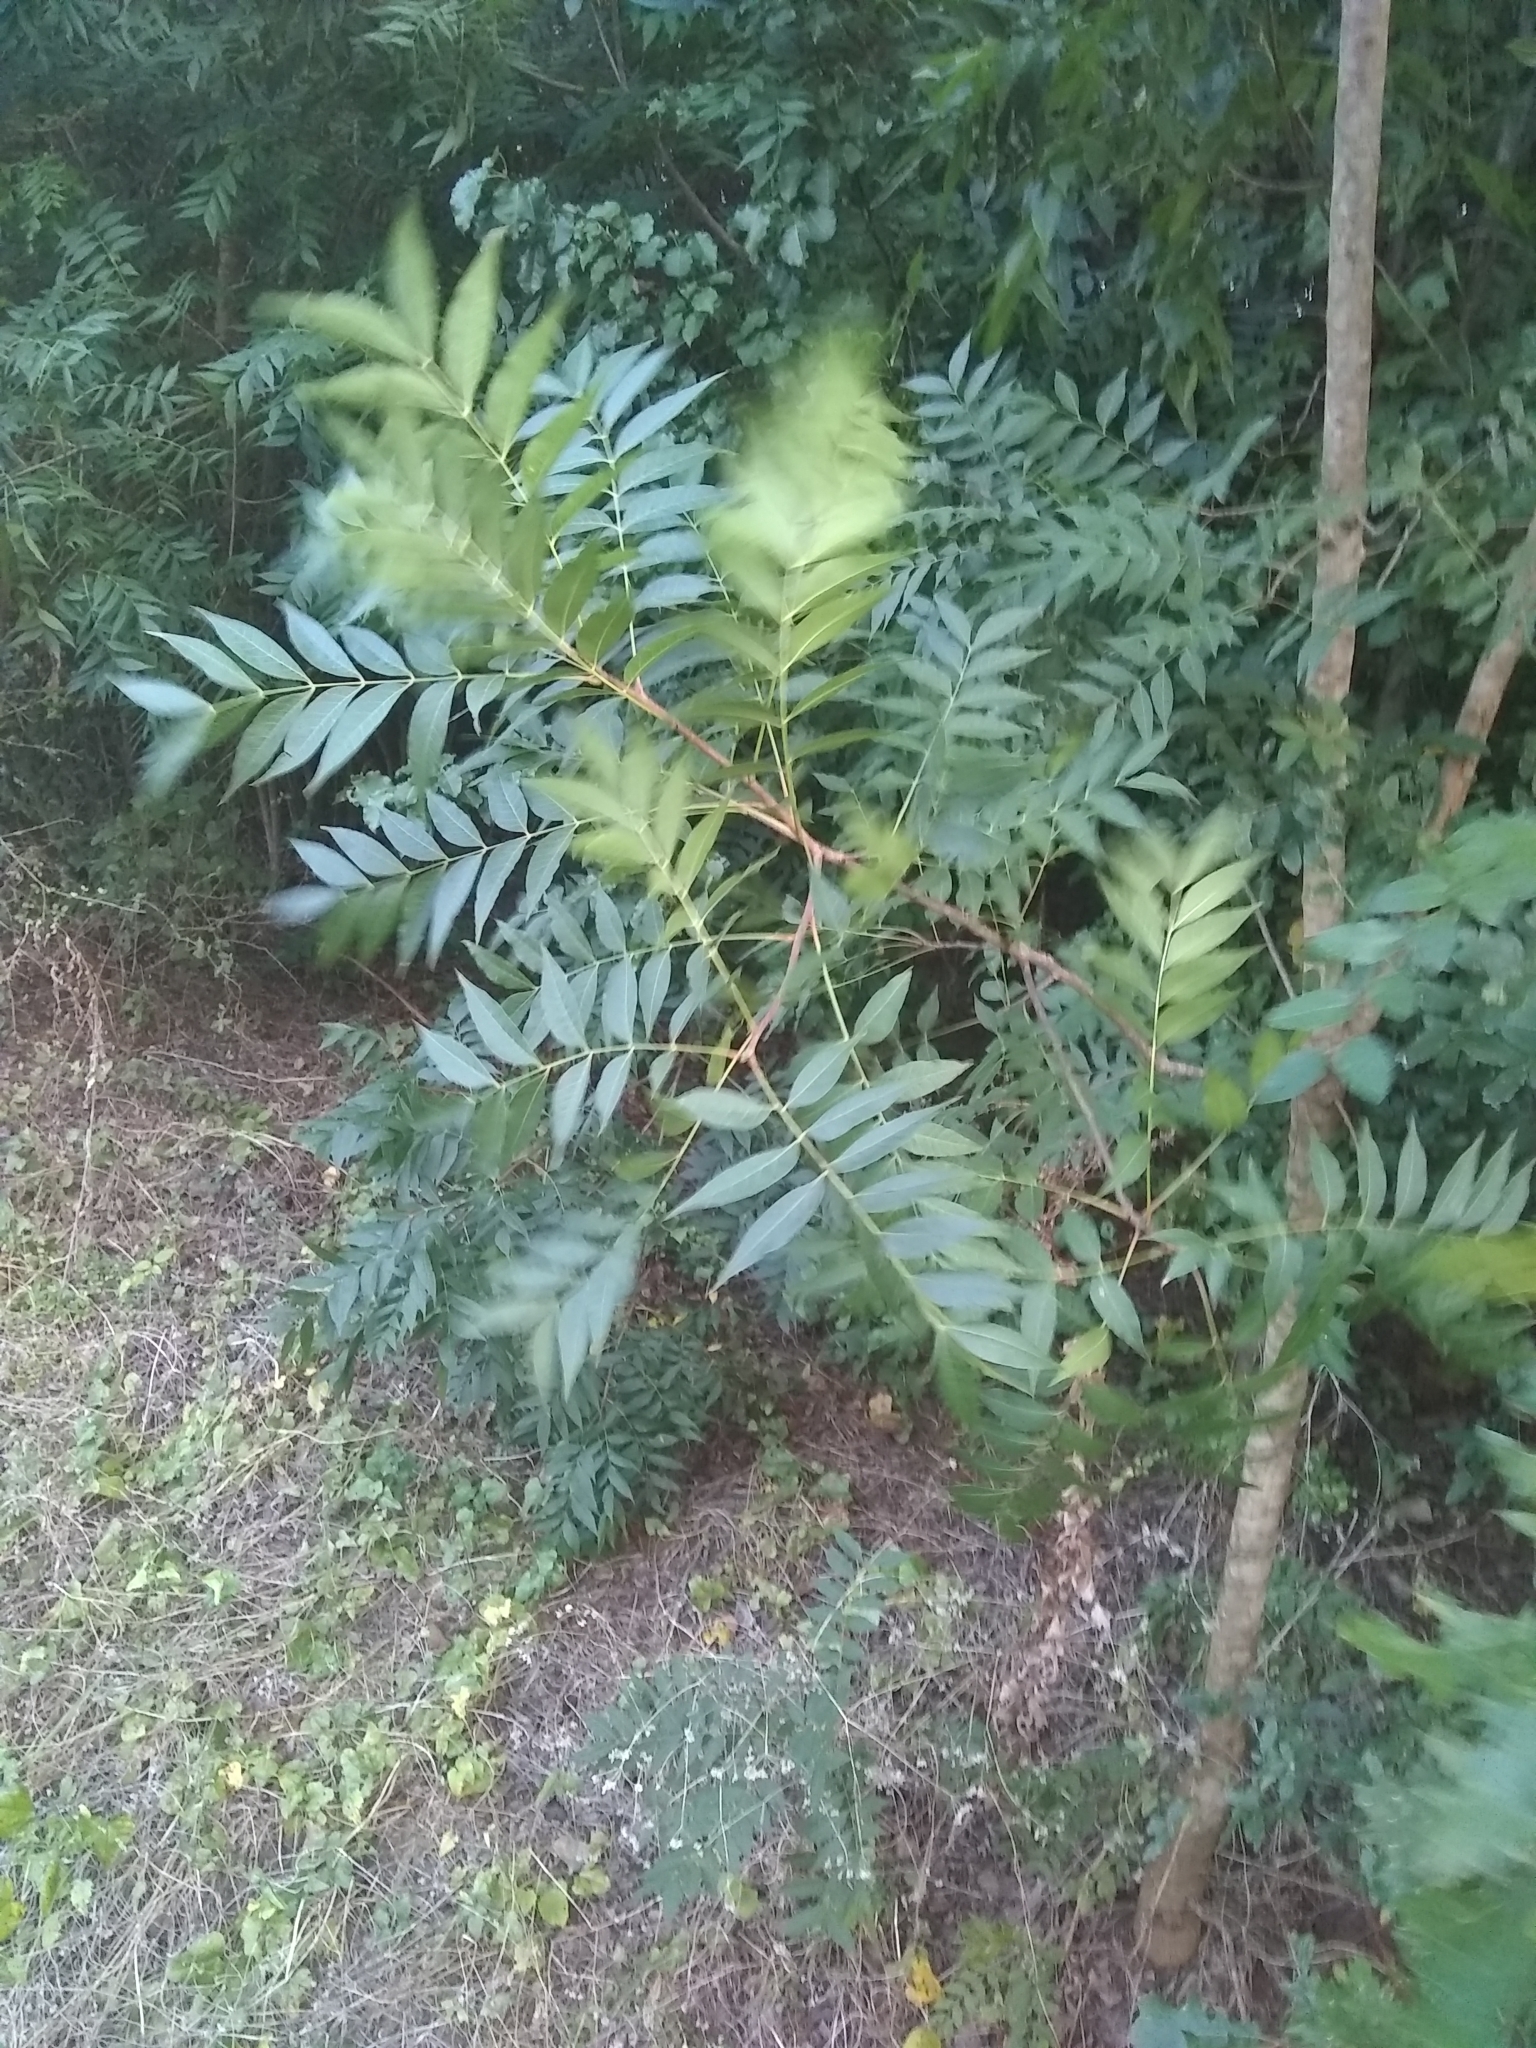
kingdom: Plantae
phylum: Tracheophyta
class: Magnoliopsida
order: Sapindales
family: Anacardiaceae
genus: Pistacia
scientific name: Pistacia chinensis
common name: Chinese pistache
